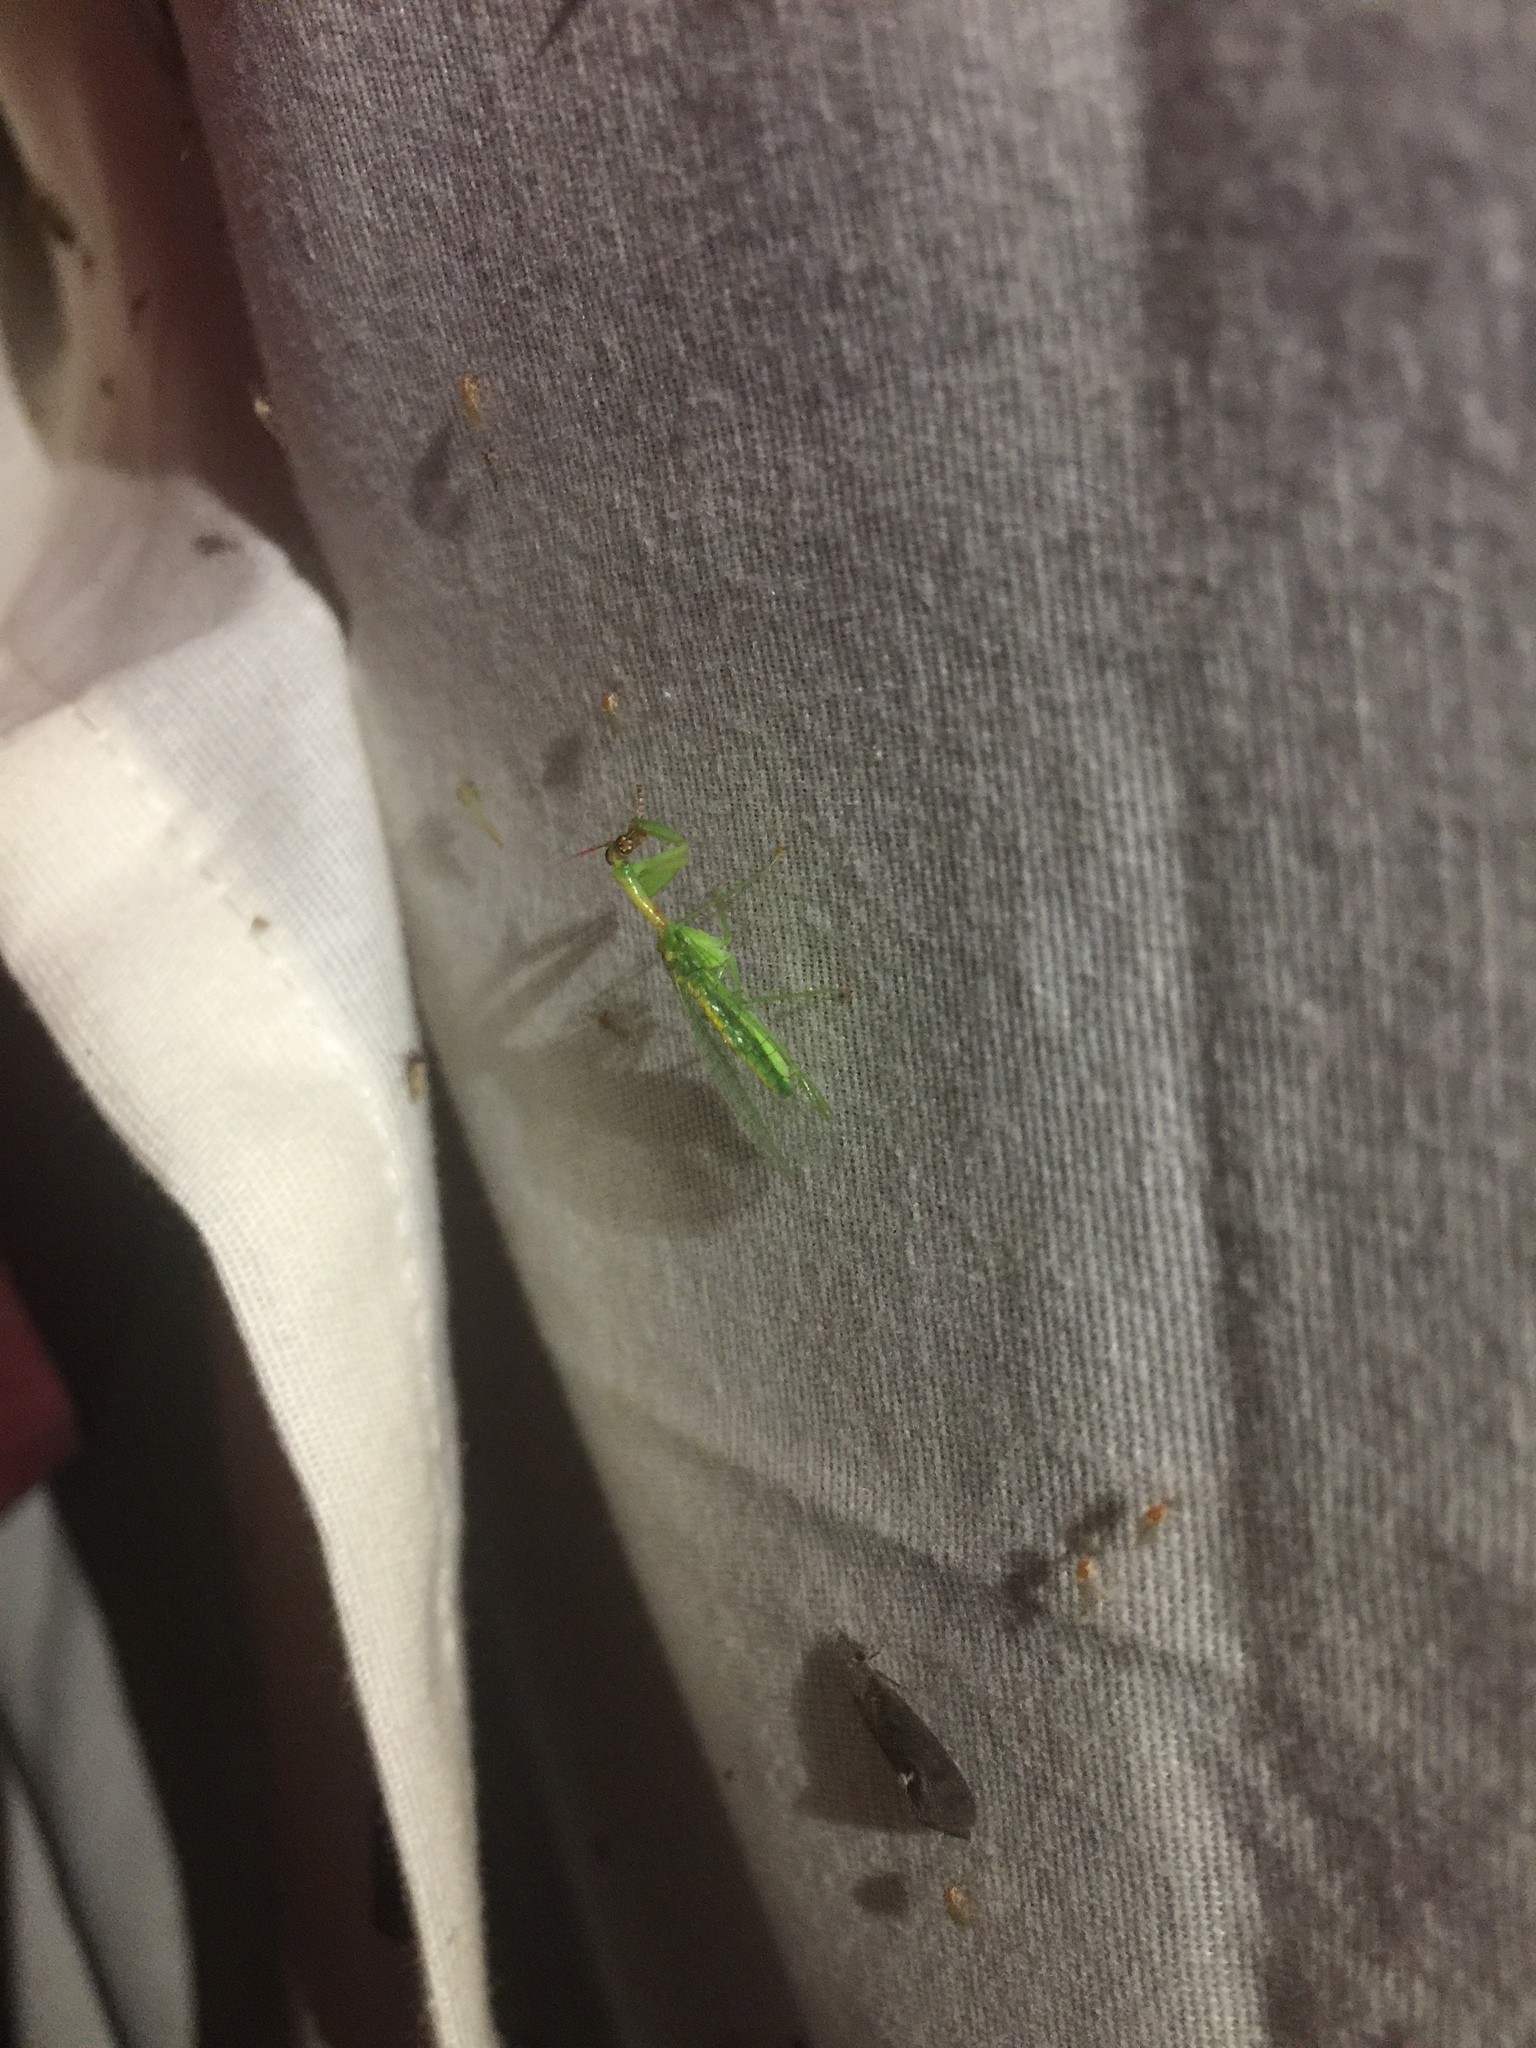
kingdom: Animalia
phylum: Arthropoda
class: Insecta
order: Neuroptera
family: Mantispidae
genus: Zeugomantispa
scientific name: Zeugomantispa minuta
